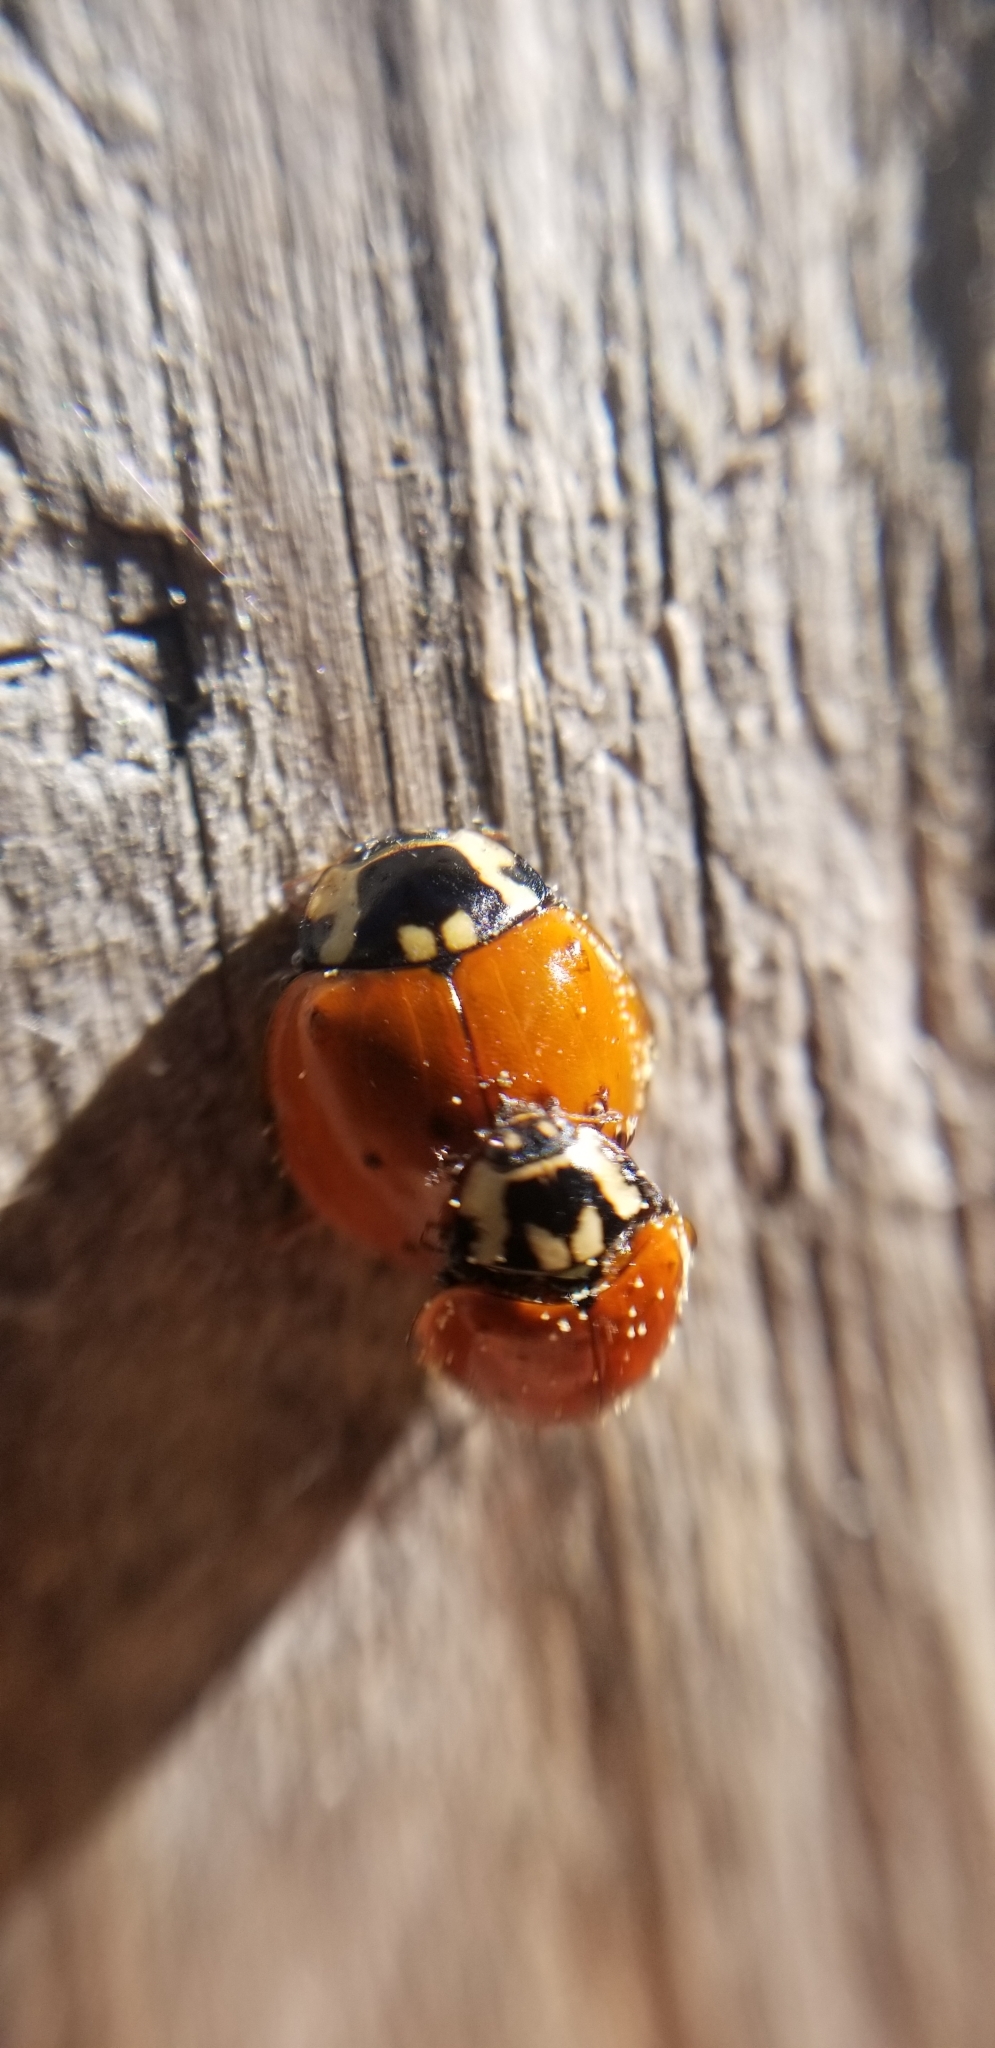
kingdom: Animalia
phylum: Arthropoda
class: Insecta
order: Coleoptera
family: Coccinellidae
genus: Anatis
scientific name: Anatis rathvoni
